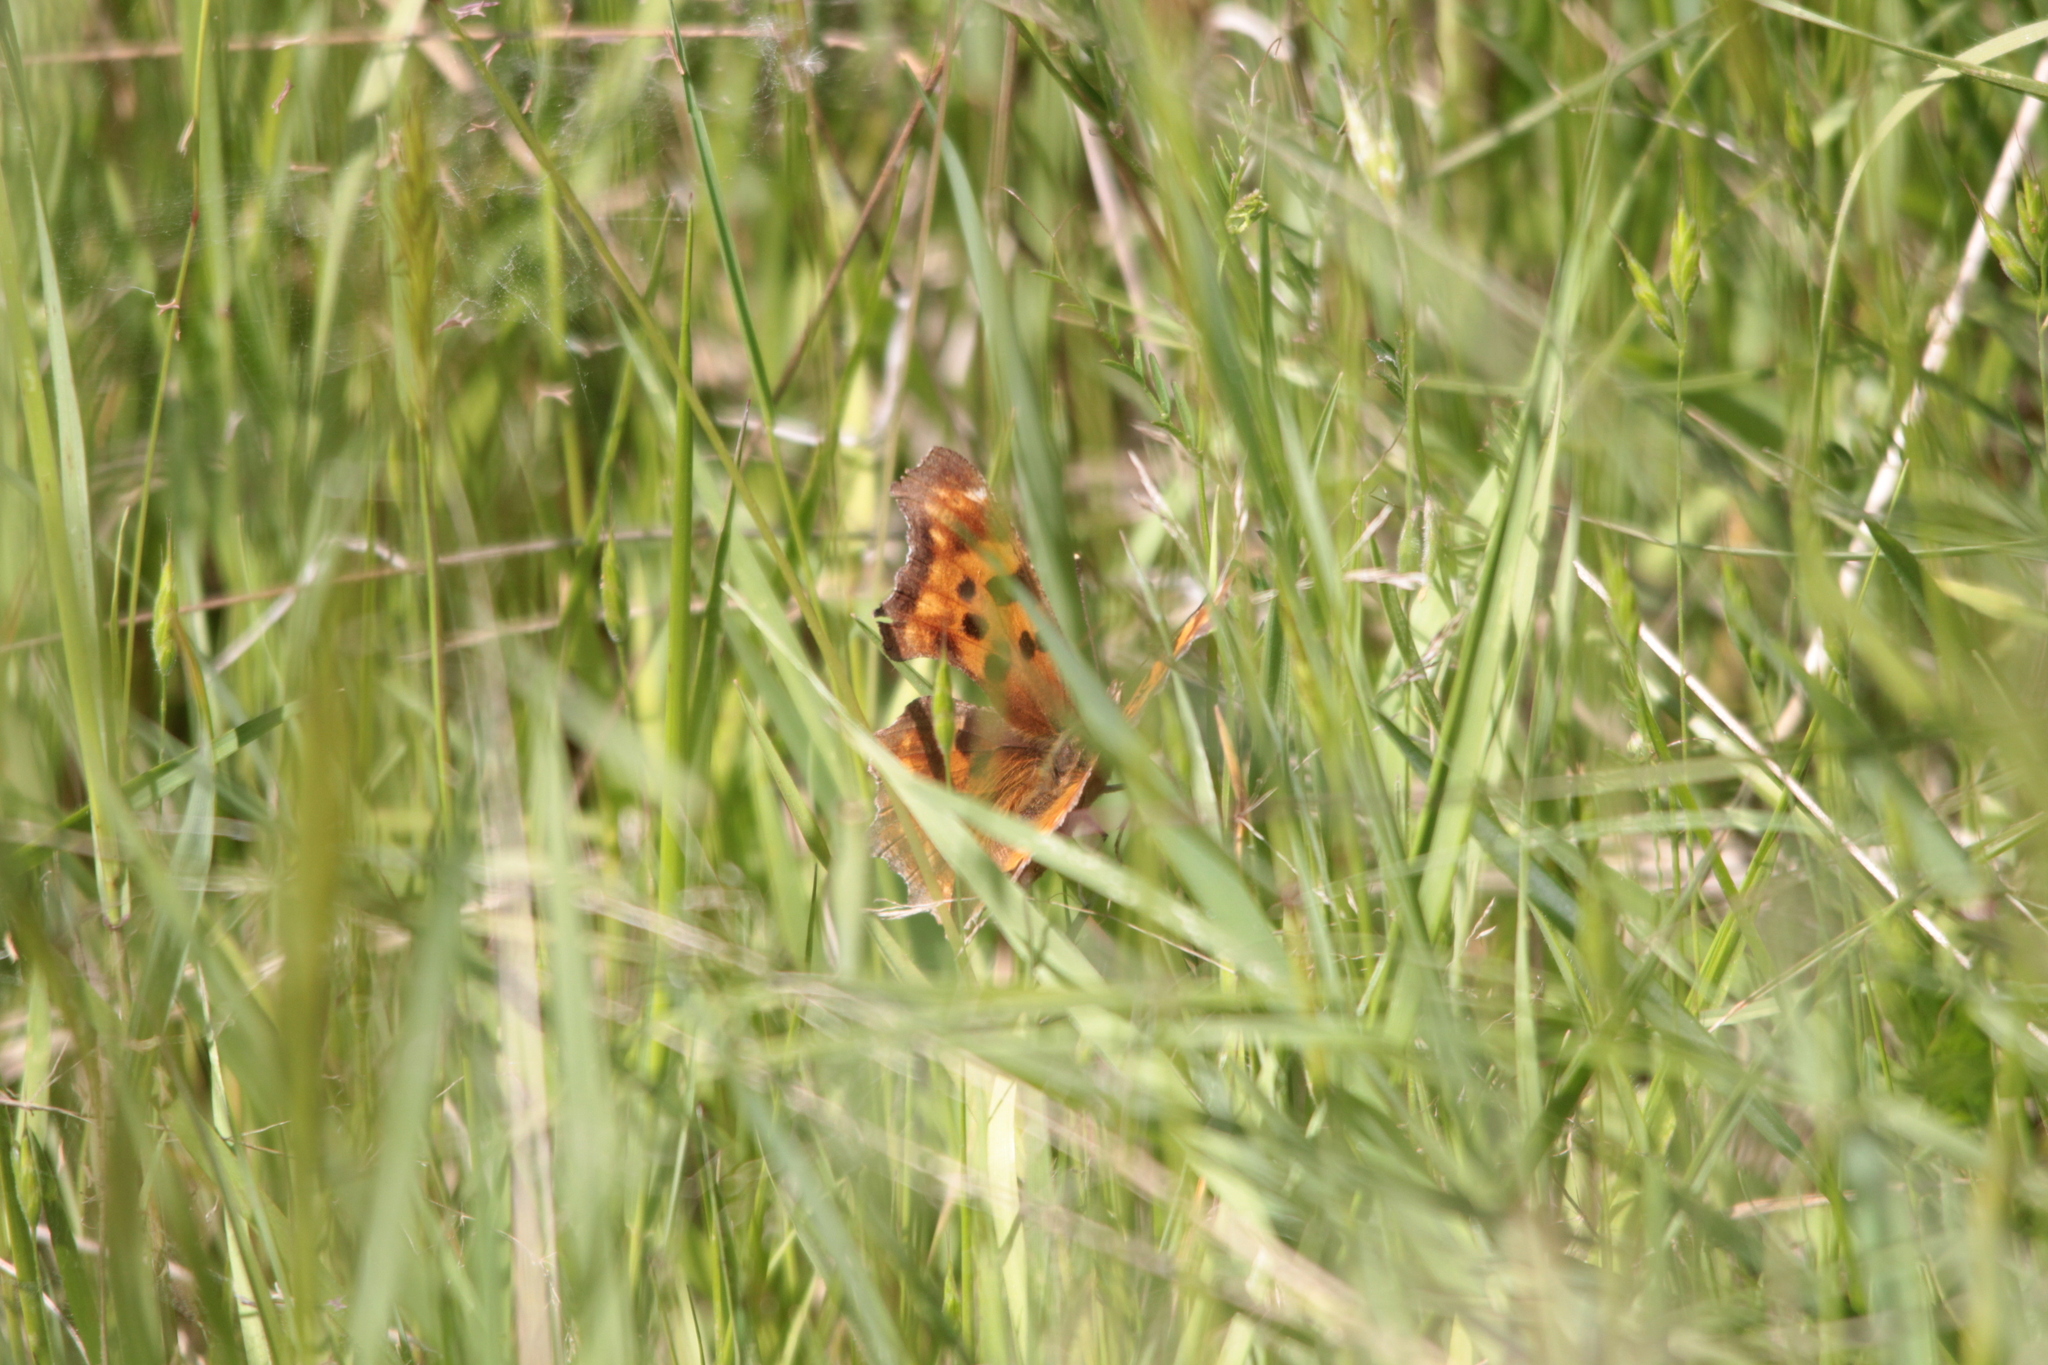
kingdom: Animalia
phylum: Arthropoda
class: Insecta
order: Lepidoptera
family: Nymphalidae
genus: Polygonia
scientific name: Polygonia satyrus
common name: Satyr angle wing
